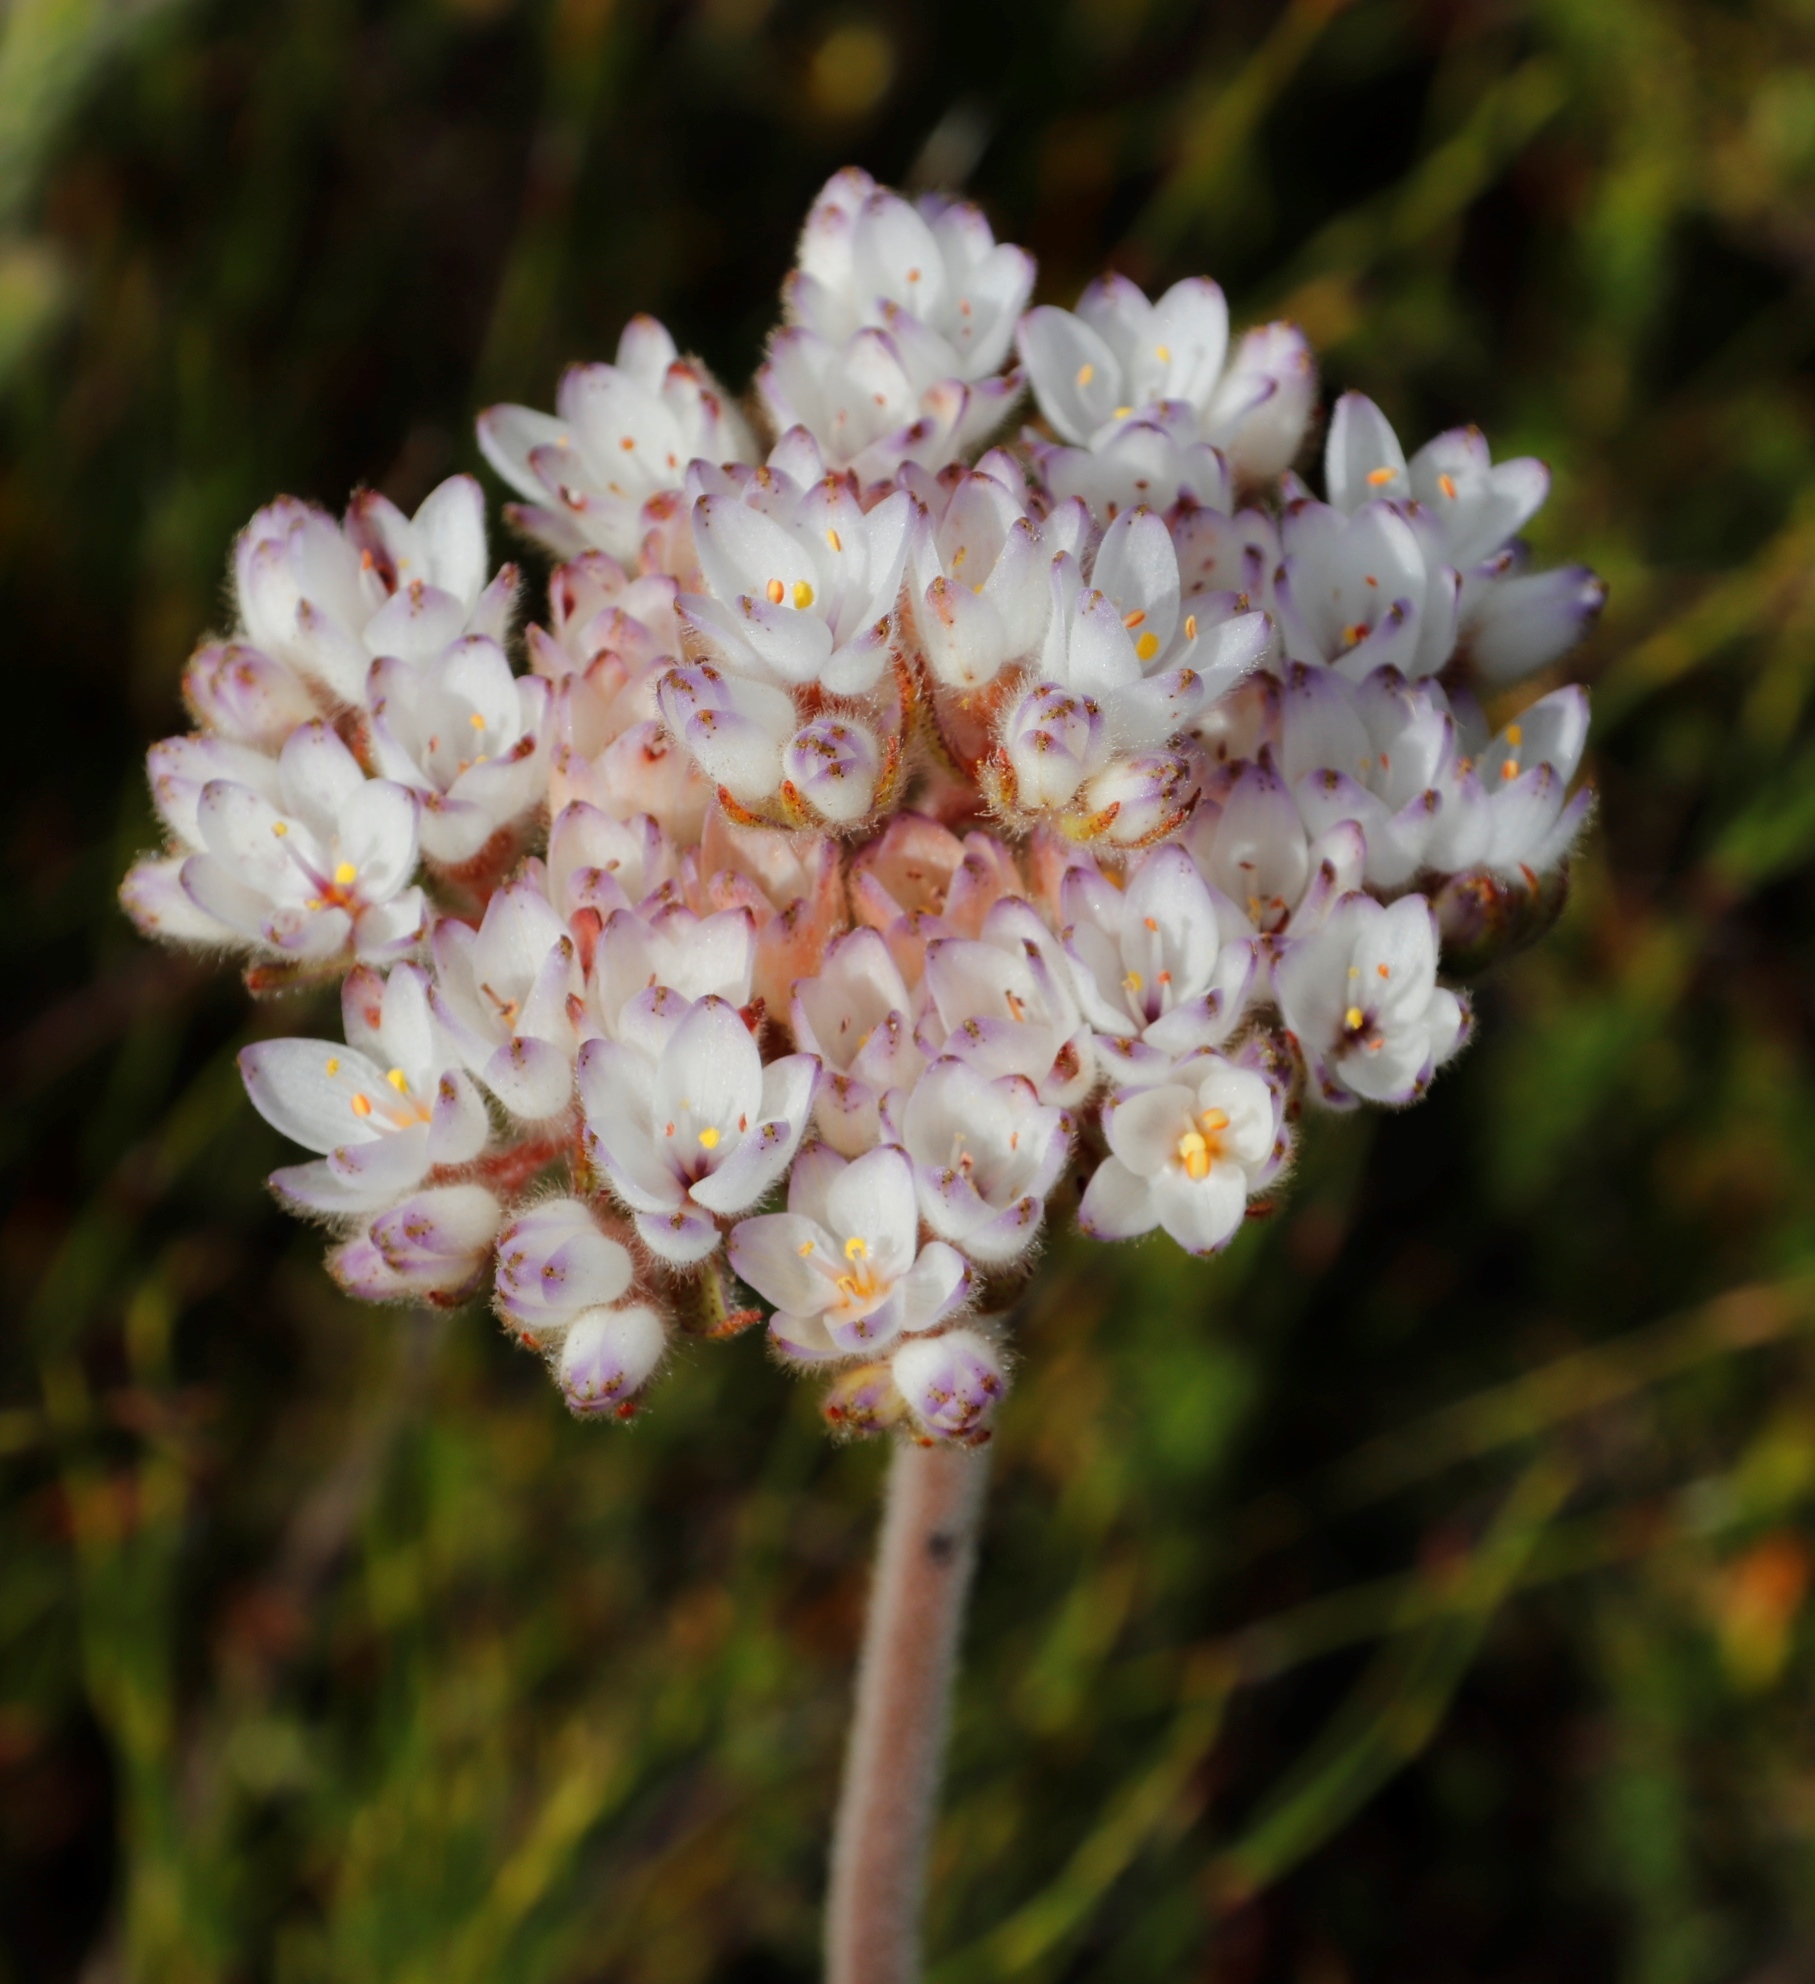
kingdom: Plantae
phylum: Tracheophyta
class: Liliopsida
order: Commelinales
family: Haemodoraceae
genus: Dilatris
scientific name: Dilatris pillansii
